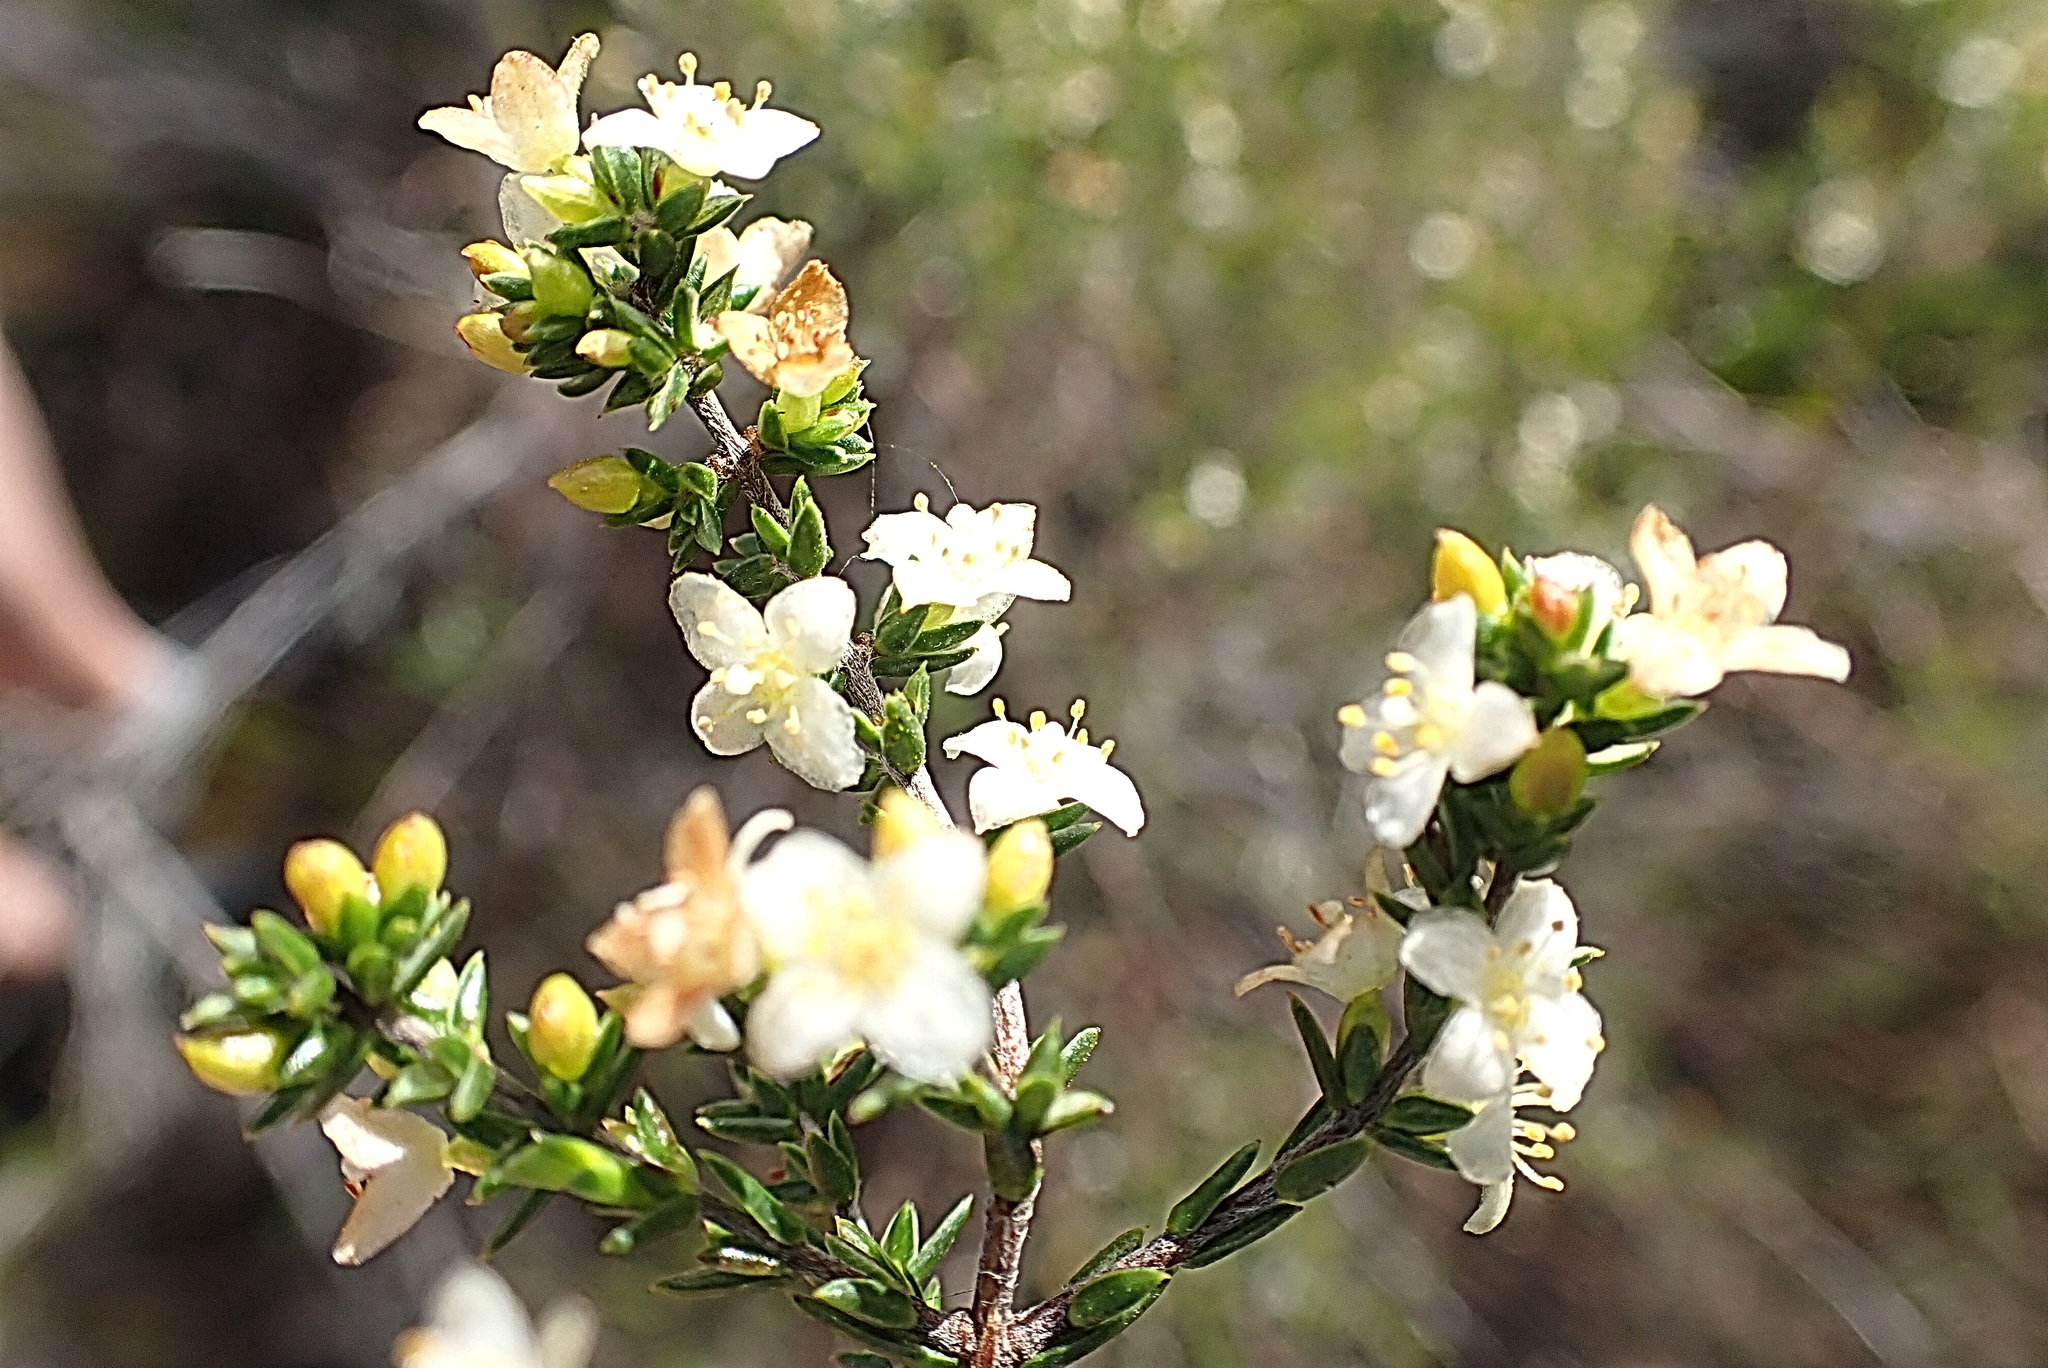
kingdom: Plantae
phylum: Tracheophyta
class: Magnoliopsida
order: Malvales
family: Thymelaeaceae
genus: Lachnaea
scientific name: Lachnaea axillaris
